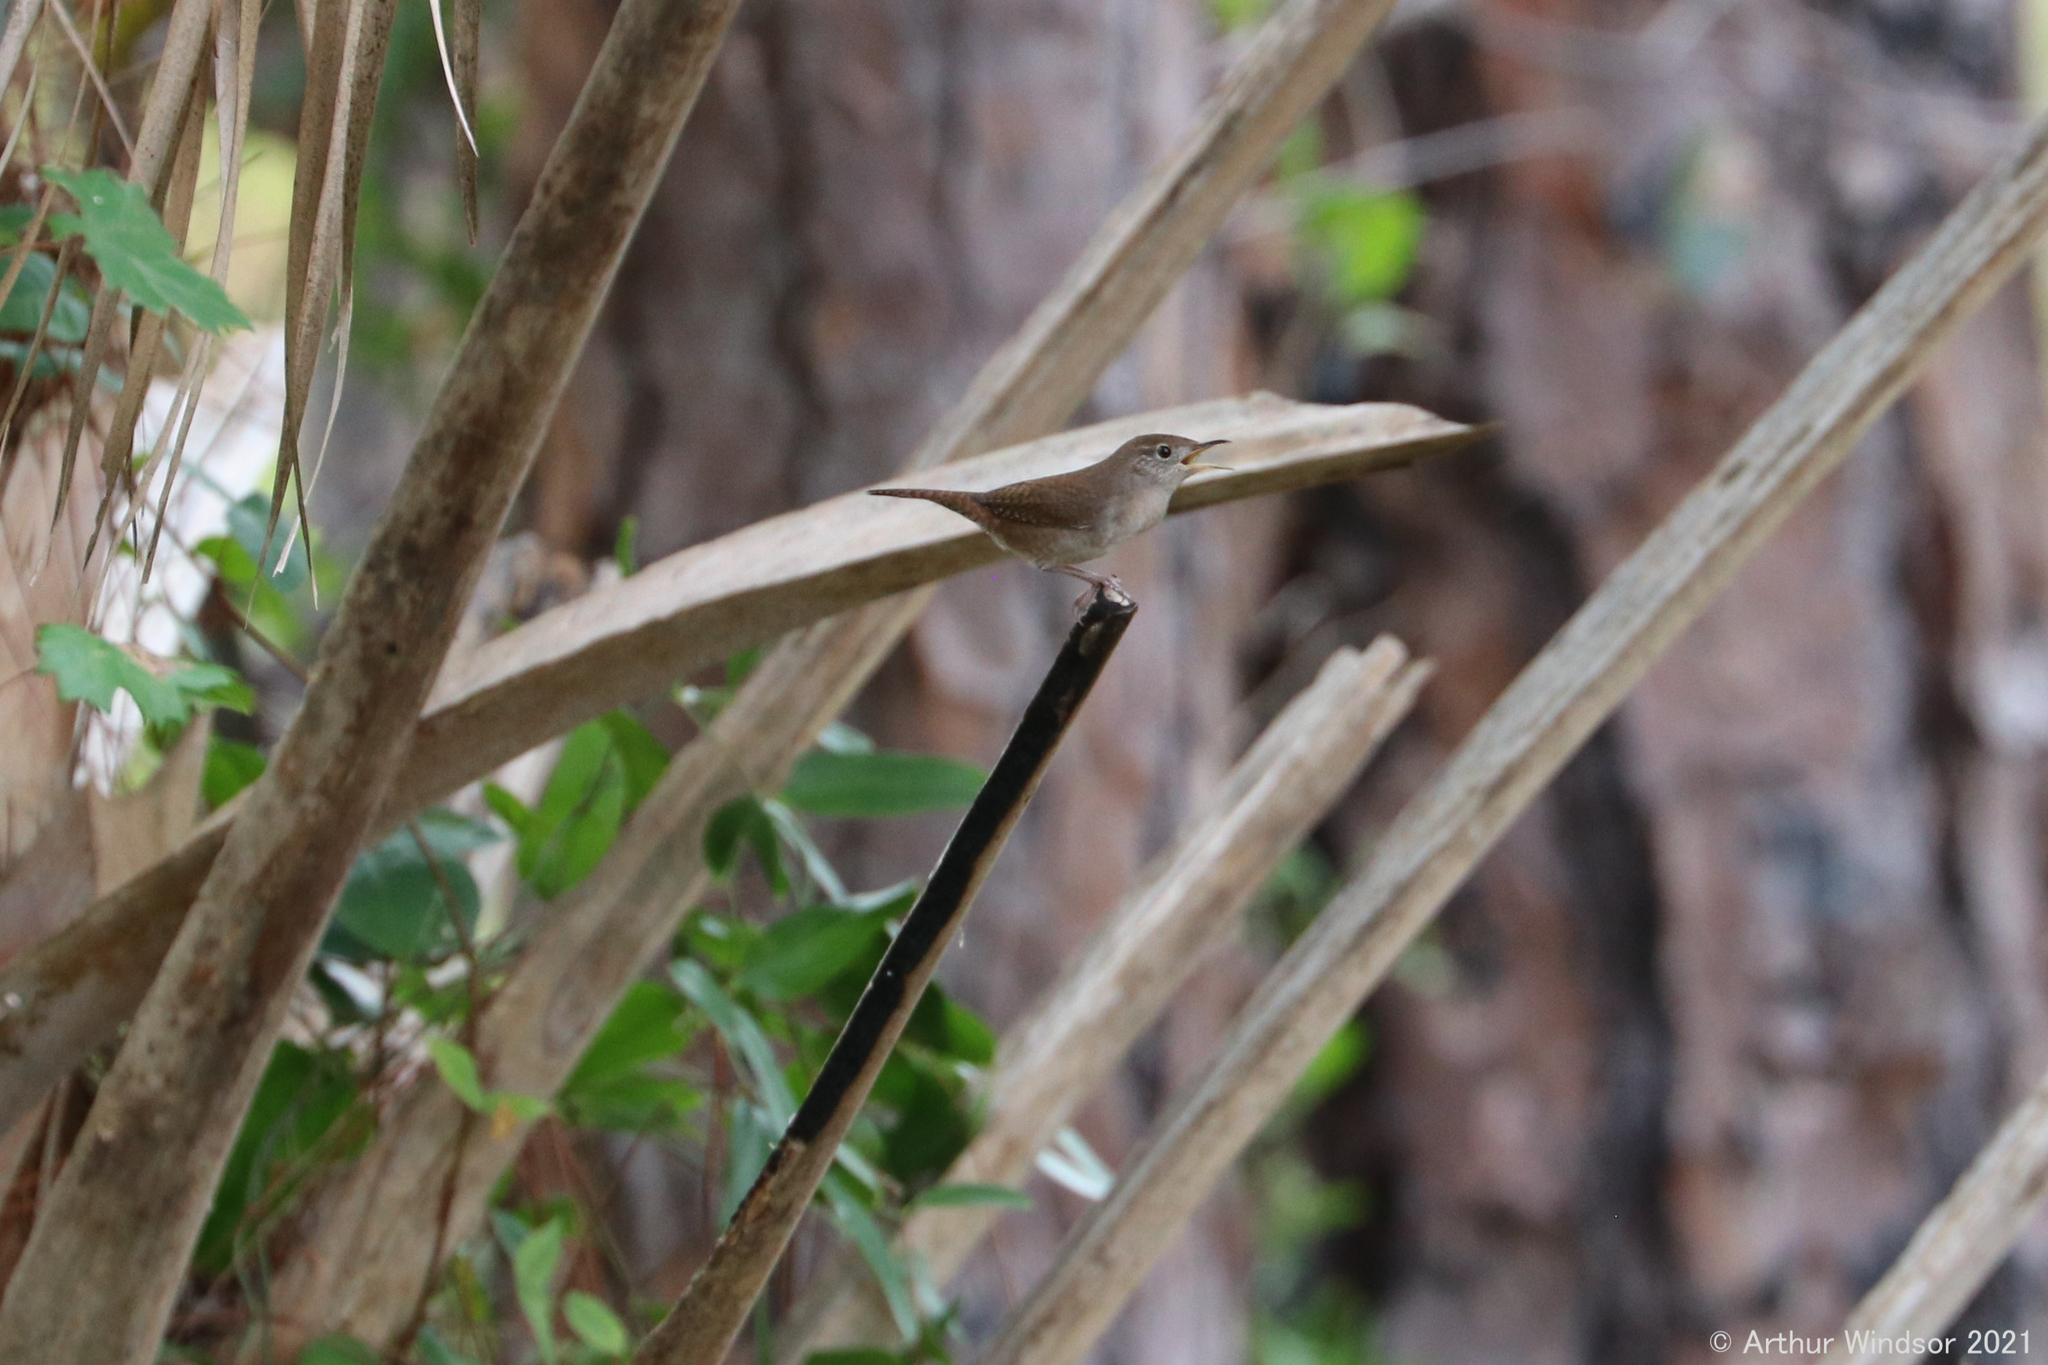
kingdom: Animalia
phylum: Chordata
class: Aves
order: Passeriformes
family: Troglodytidae
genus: Troglodytes
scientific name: Troglodytes aedon
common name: House wren
